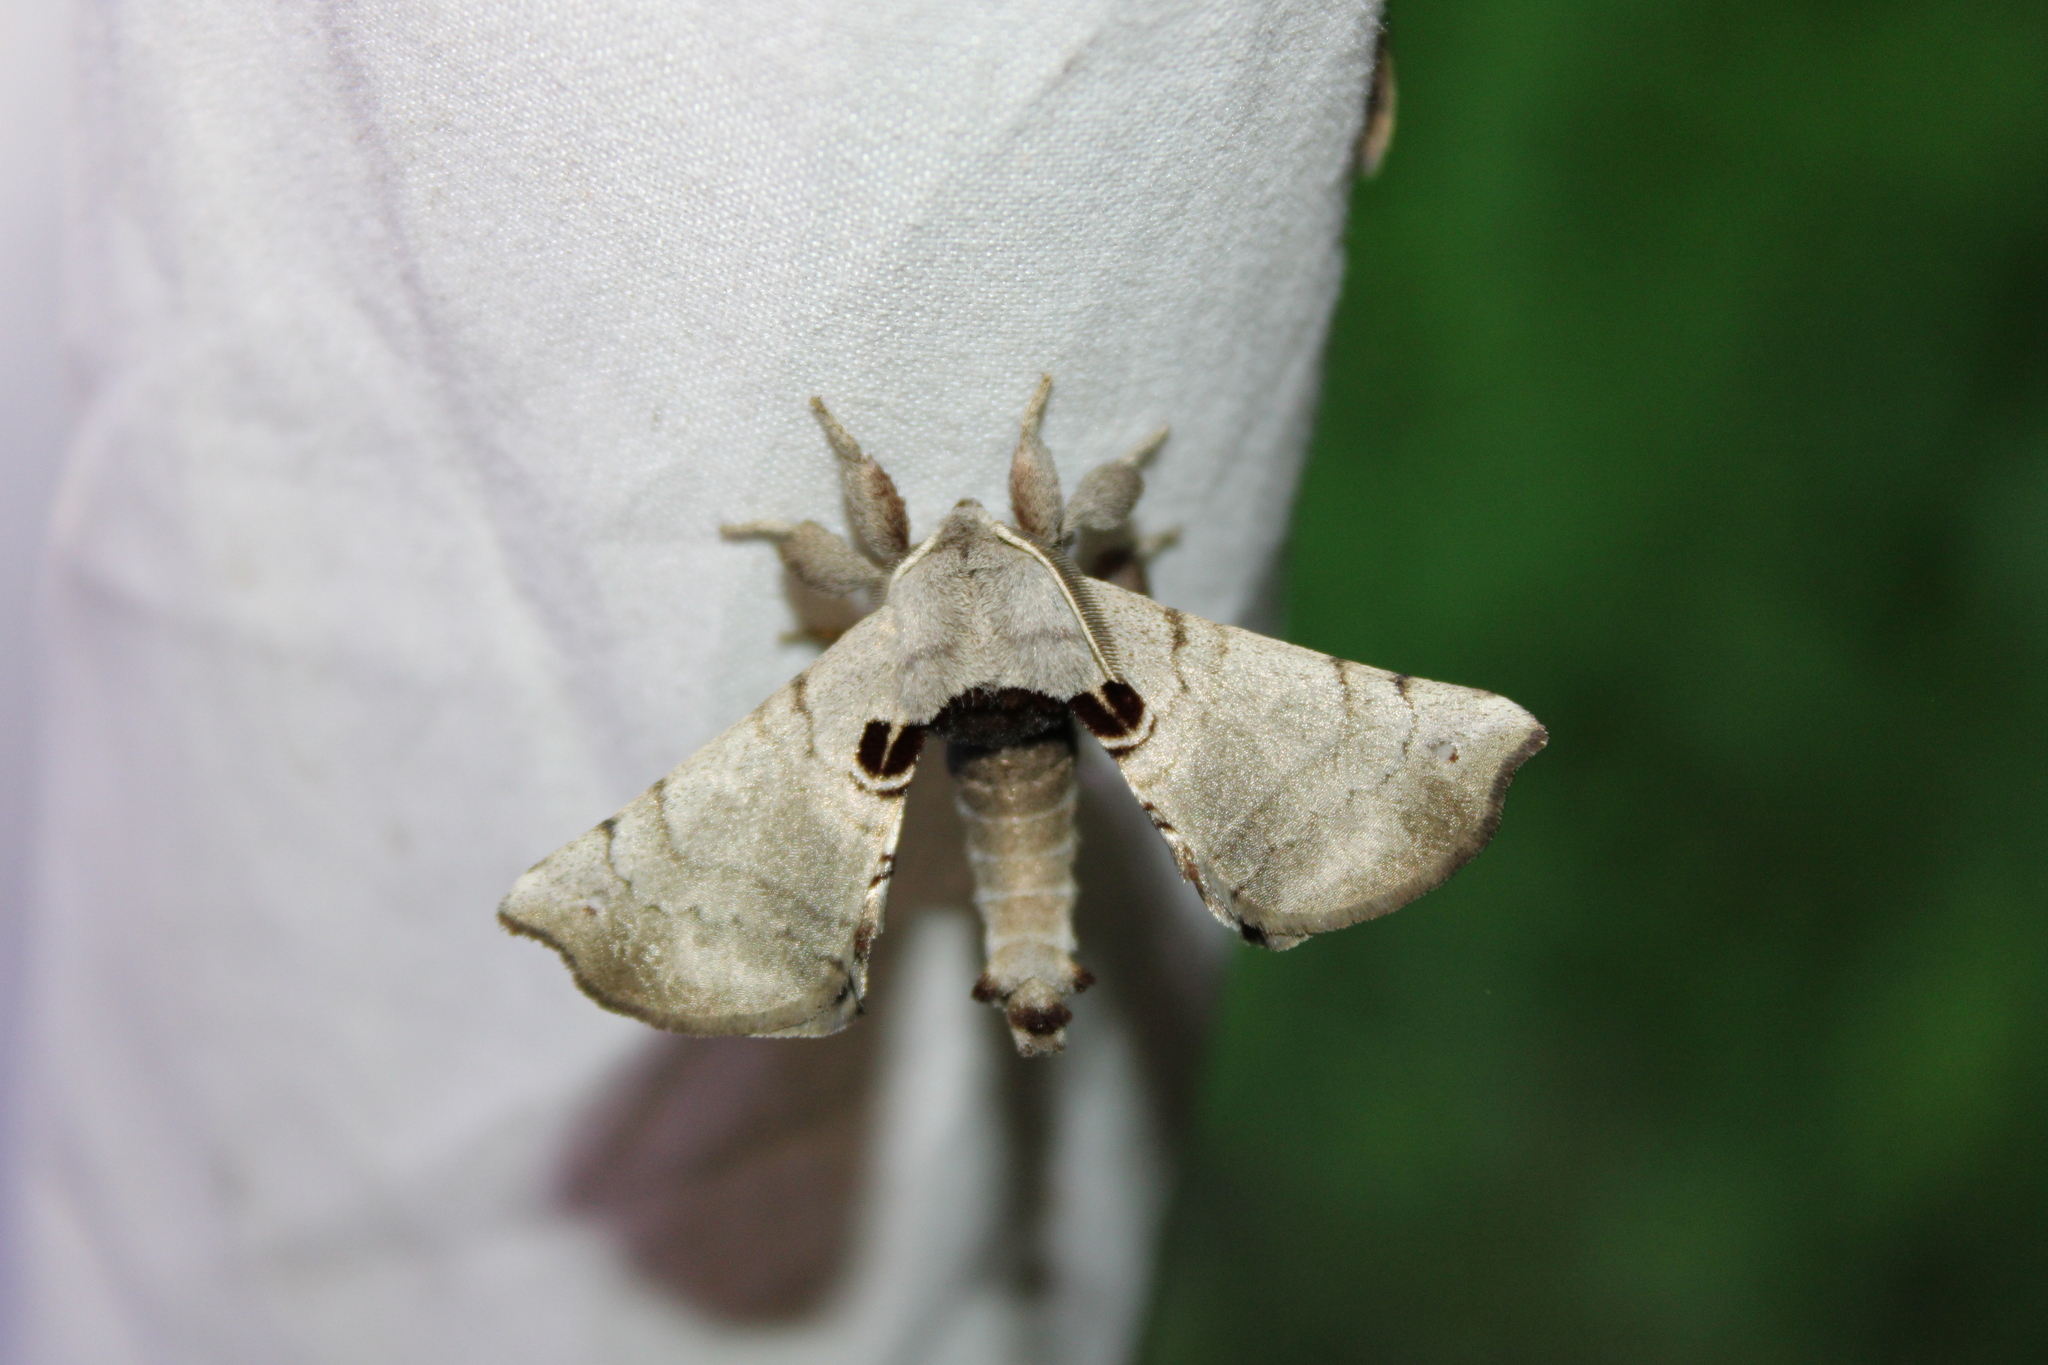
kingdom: Animalia
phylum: Arthropoda
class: Insecta
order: Lepidoptera
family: Apatelodidae
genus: Hygrochroa
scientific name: Hygrochroa Apatelodes torrefacta
